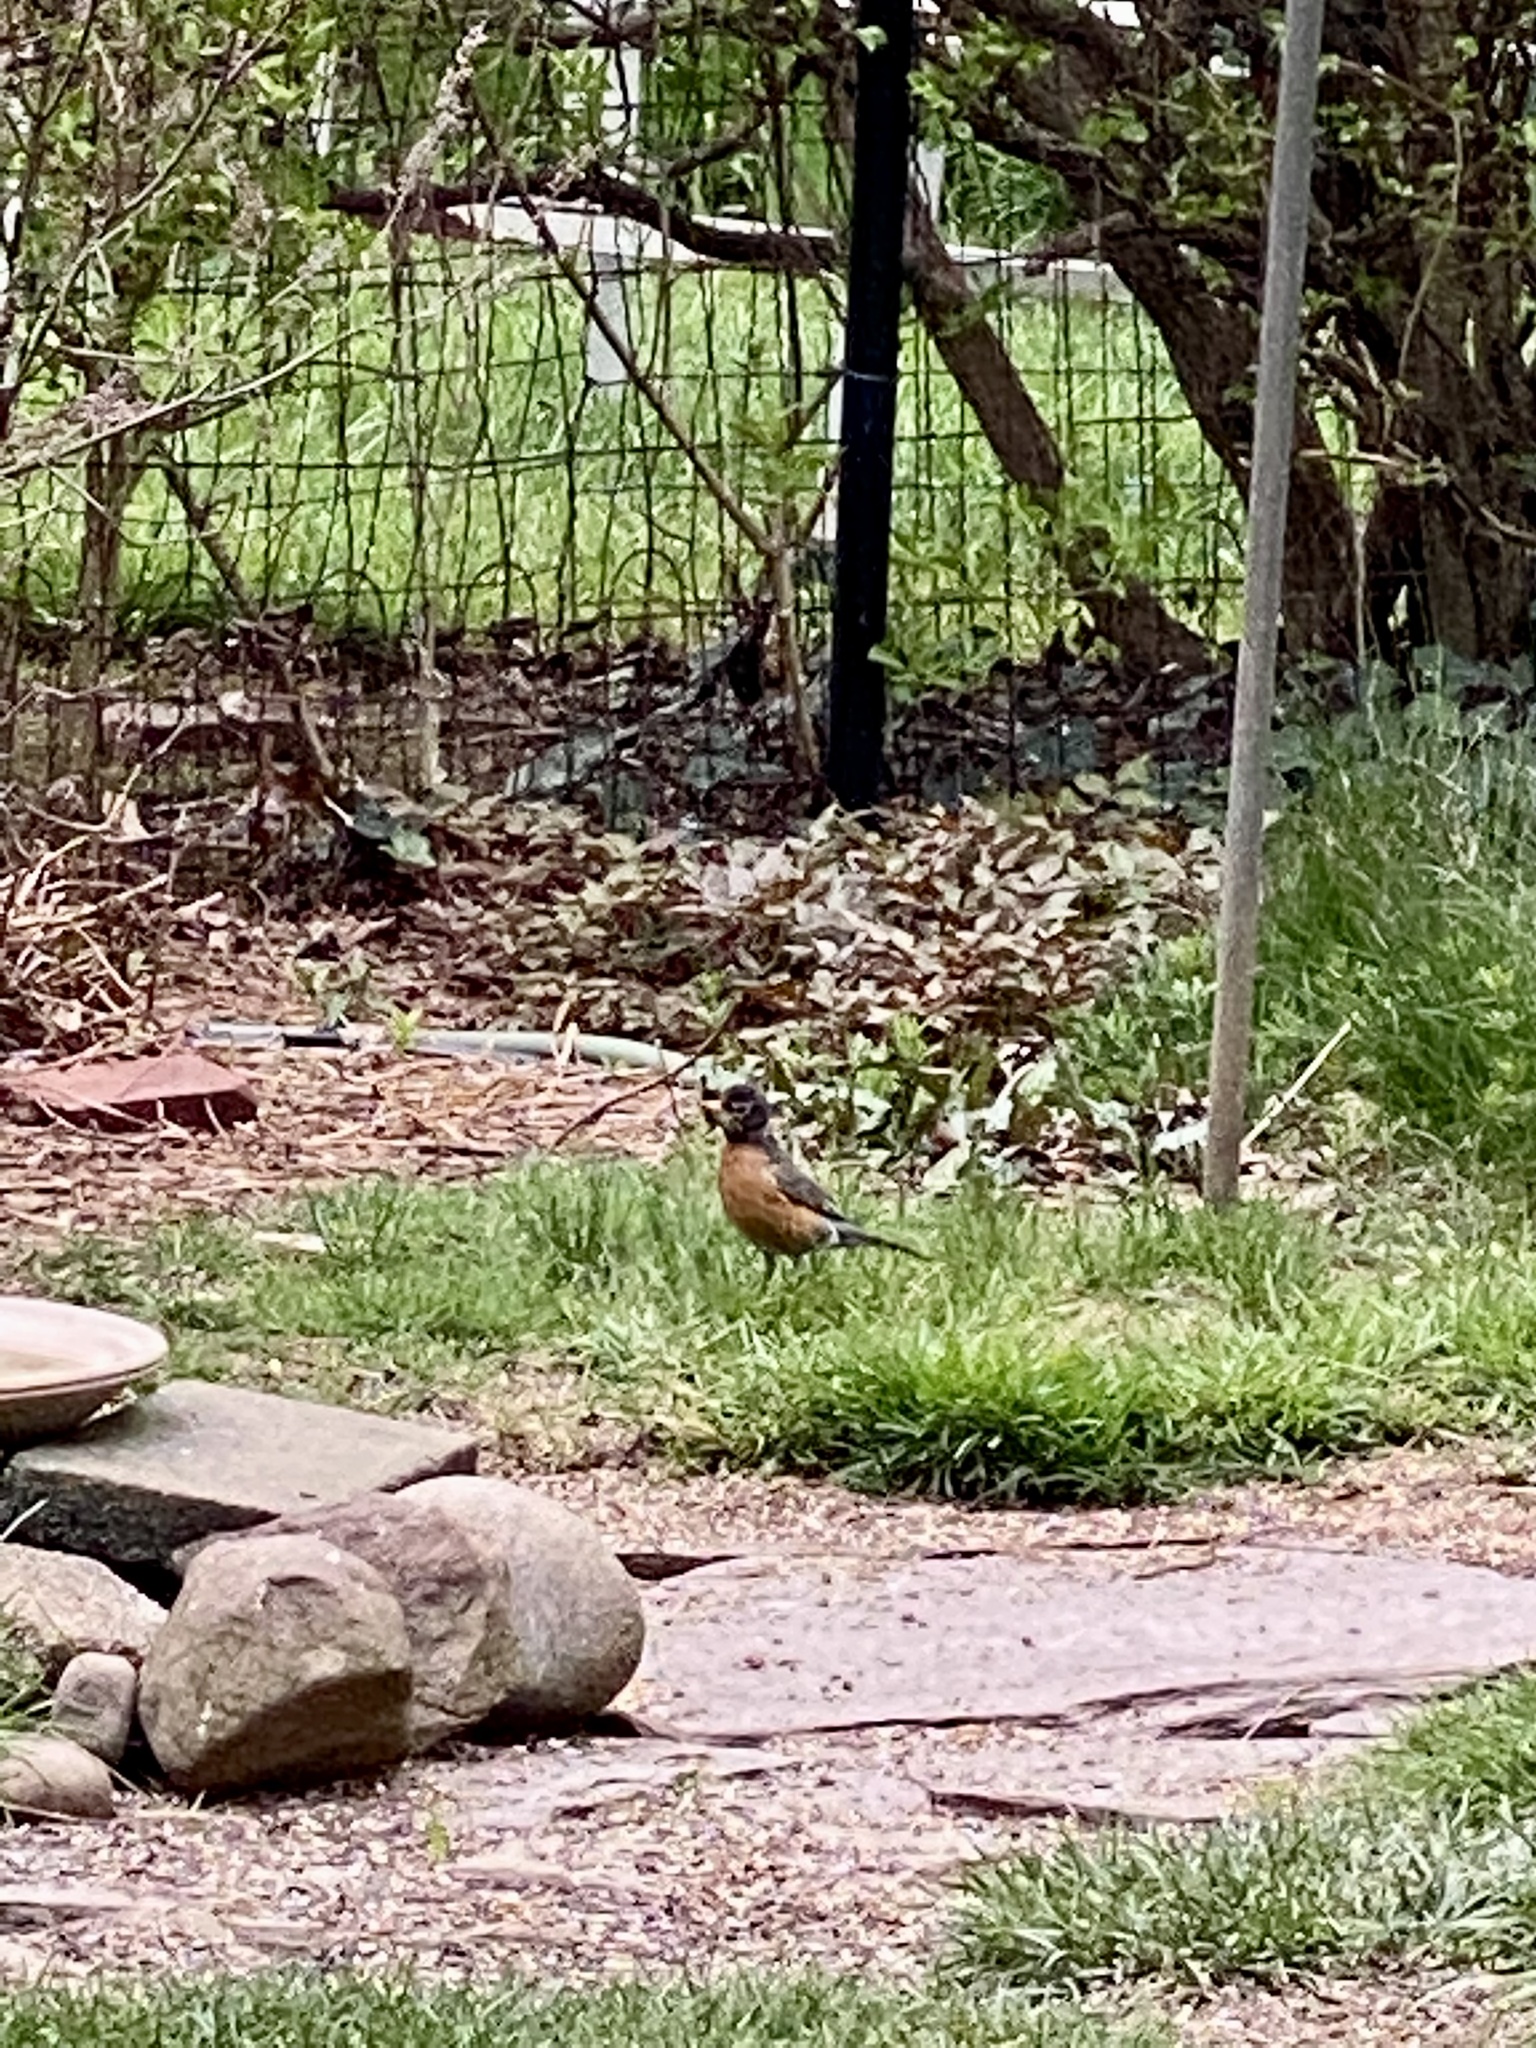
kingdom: Animalia
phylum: Chordata
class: Aves
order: Passeriformes
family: Turdidae
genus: Turdus
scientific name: Turdus migratorius
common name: American robin
